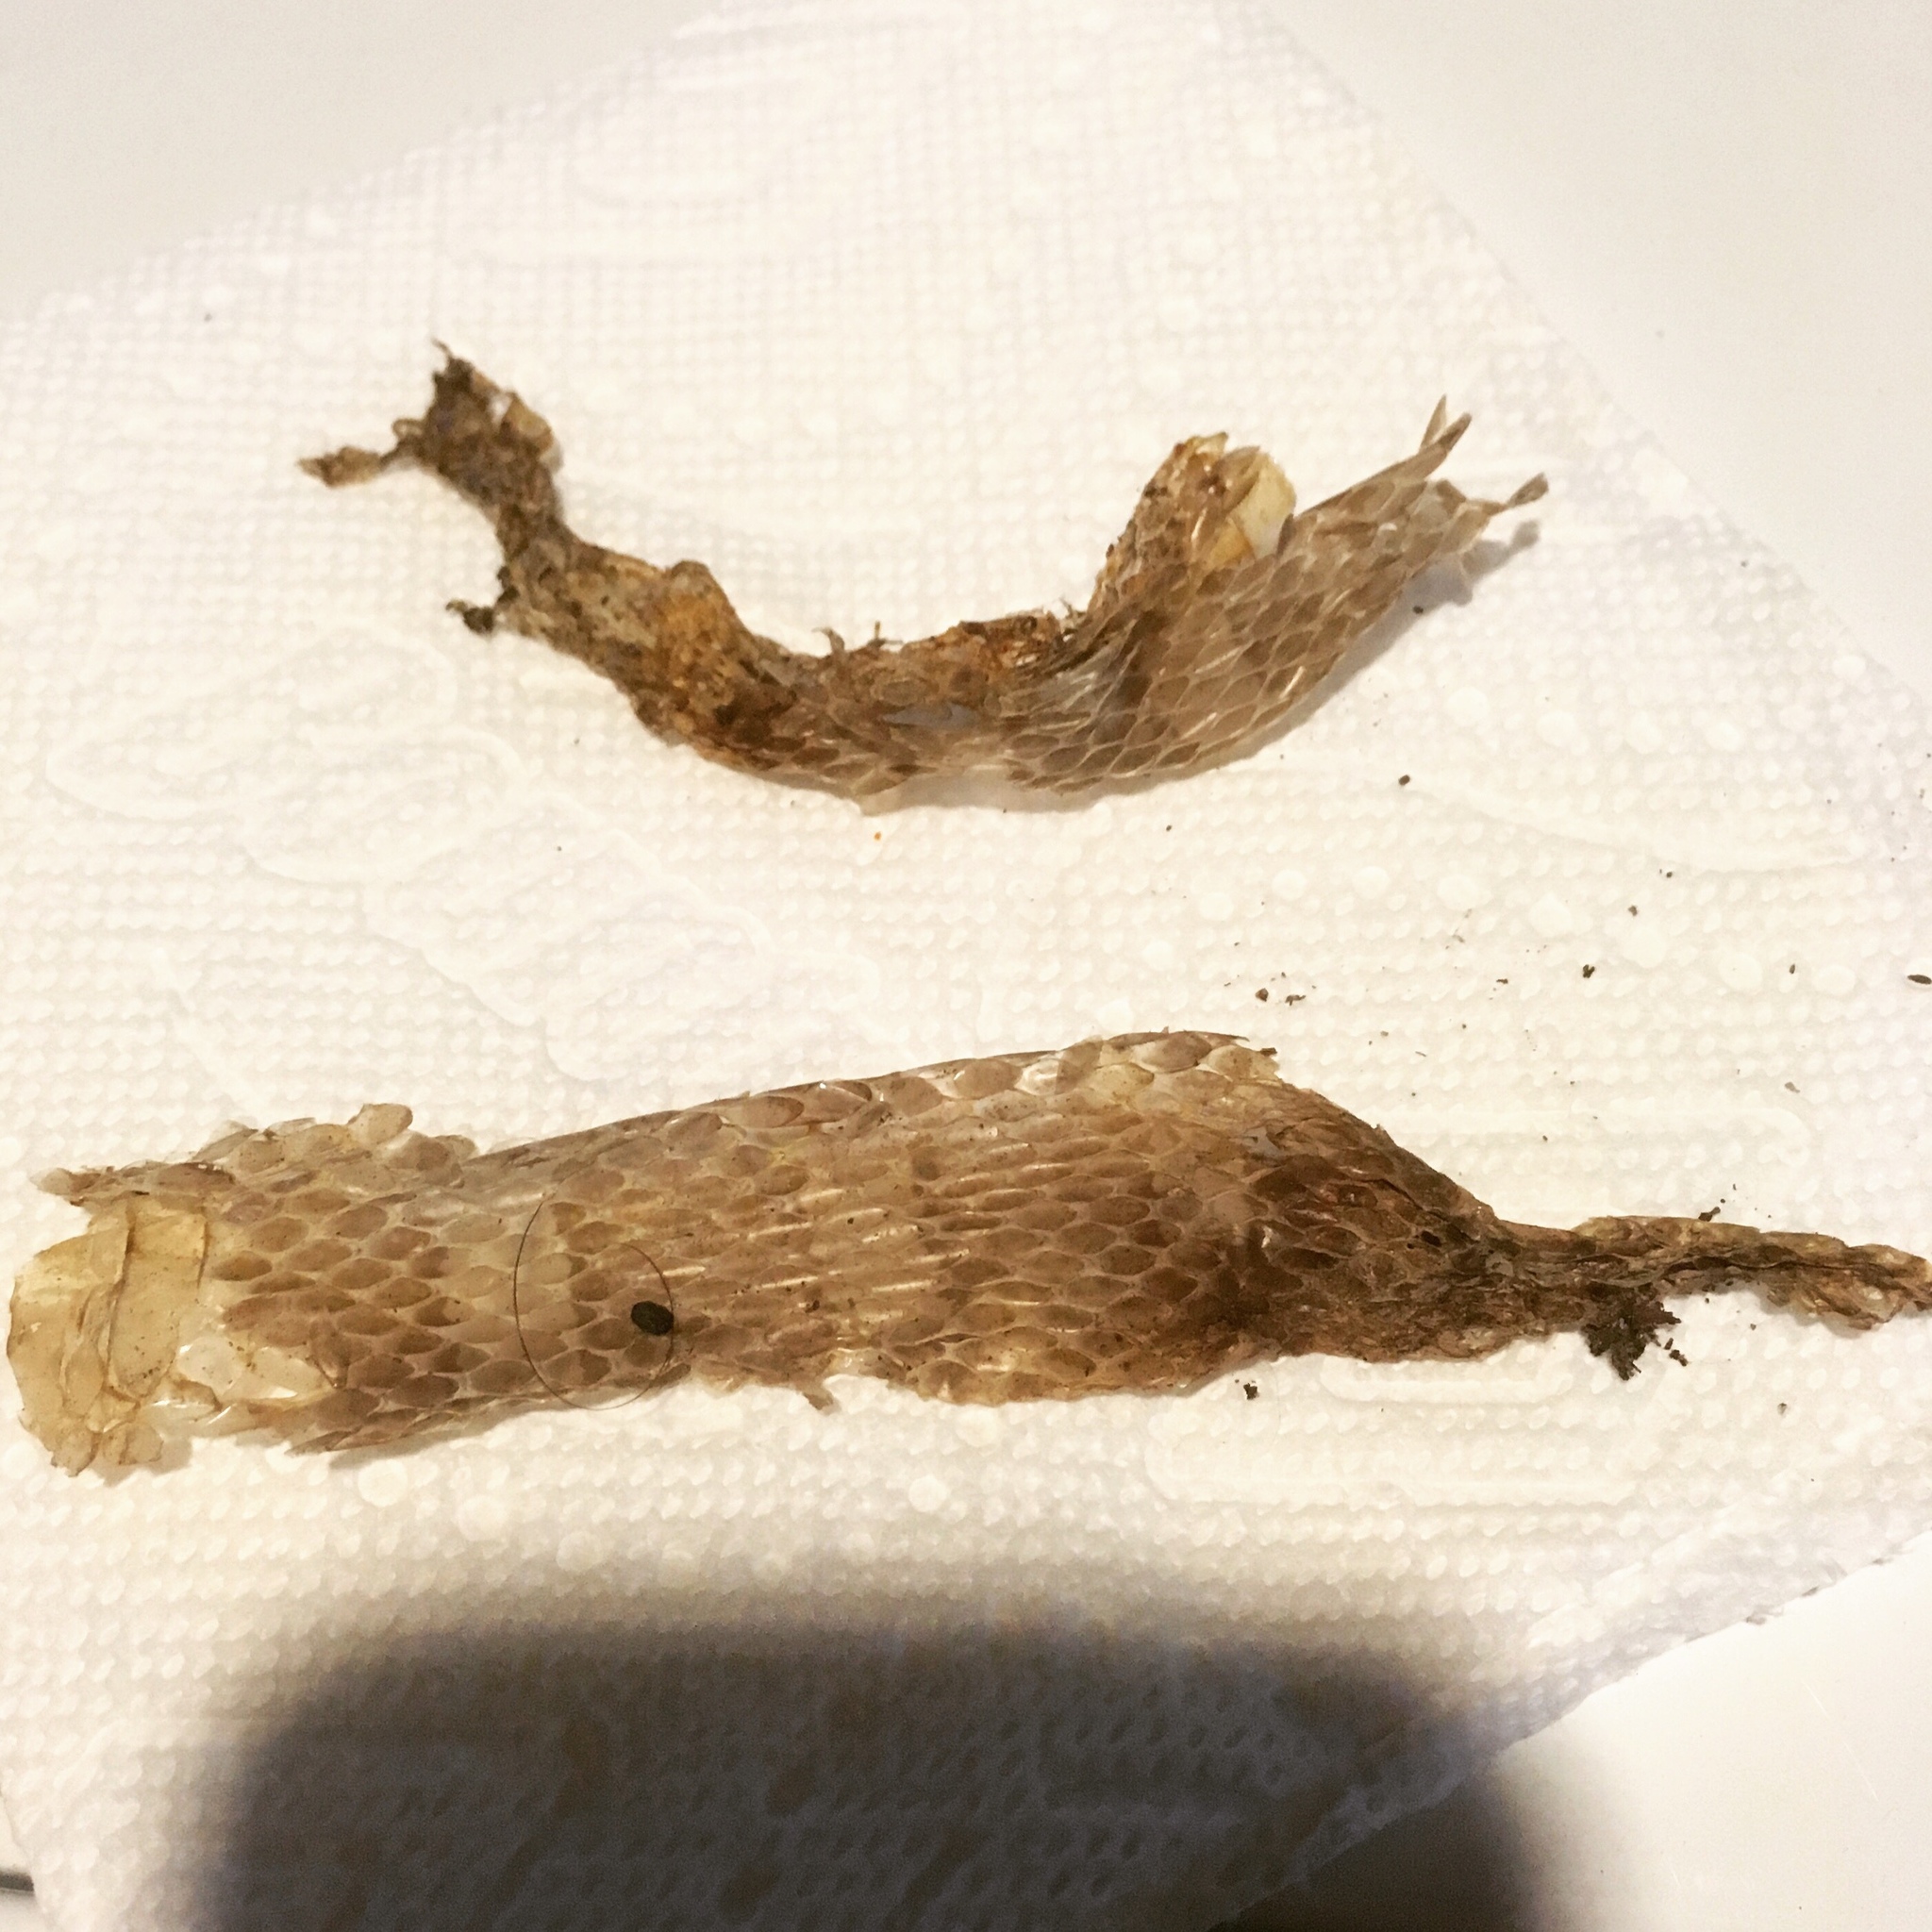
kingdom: Animalia
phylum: Chordata
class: Squamata
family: Colubridae
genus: Lampropeltis
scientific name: Lampropeltis triangulum
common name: Eastern milksnake
